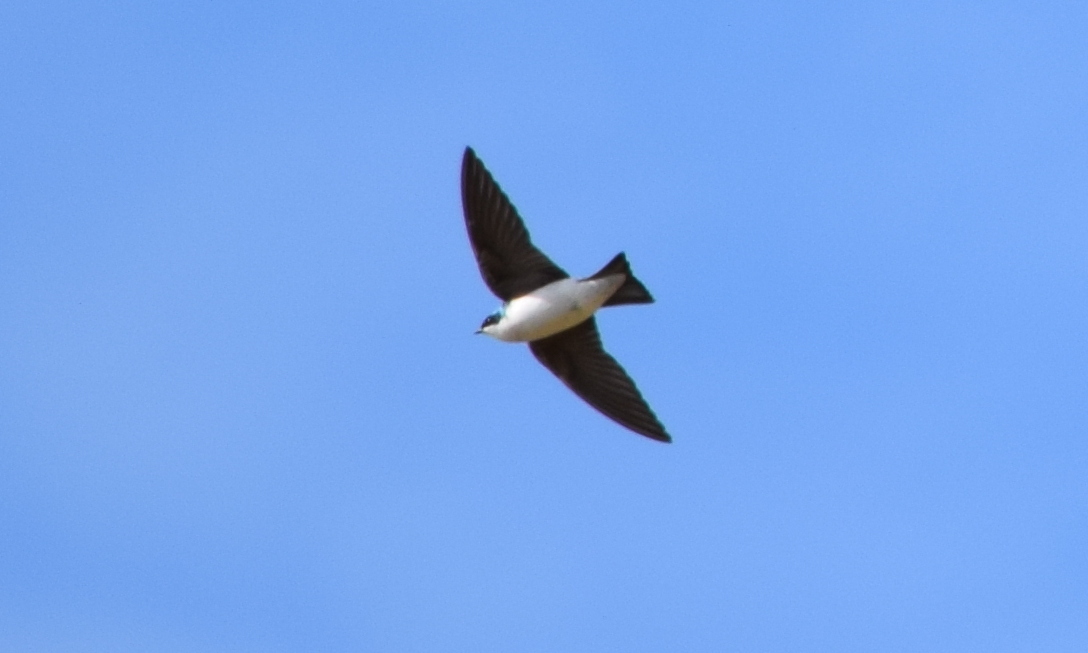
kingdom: Animalia
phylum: Chordata
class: Aves
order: Passeriformes
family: Hirundinidae
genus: Tachycineta
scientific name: Tachycineta bicolor
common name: Tree swallow
